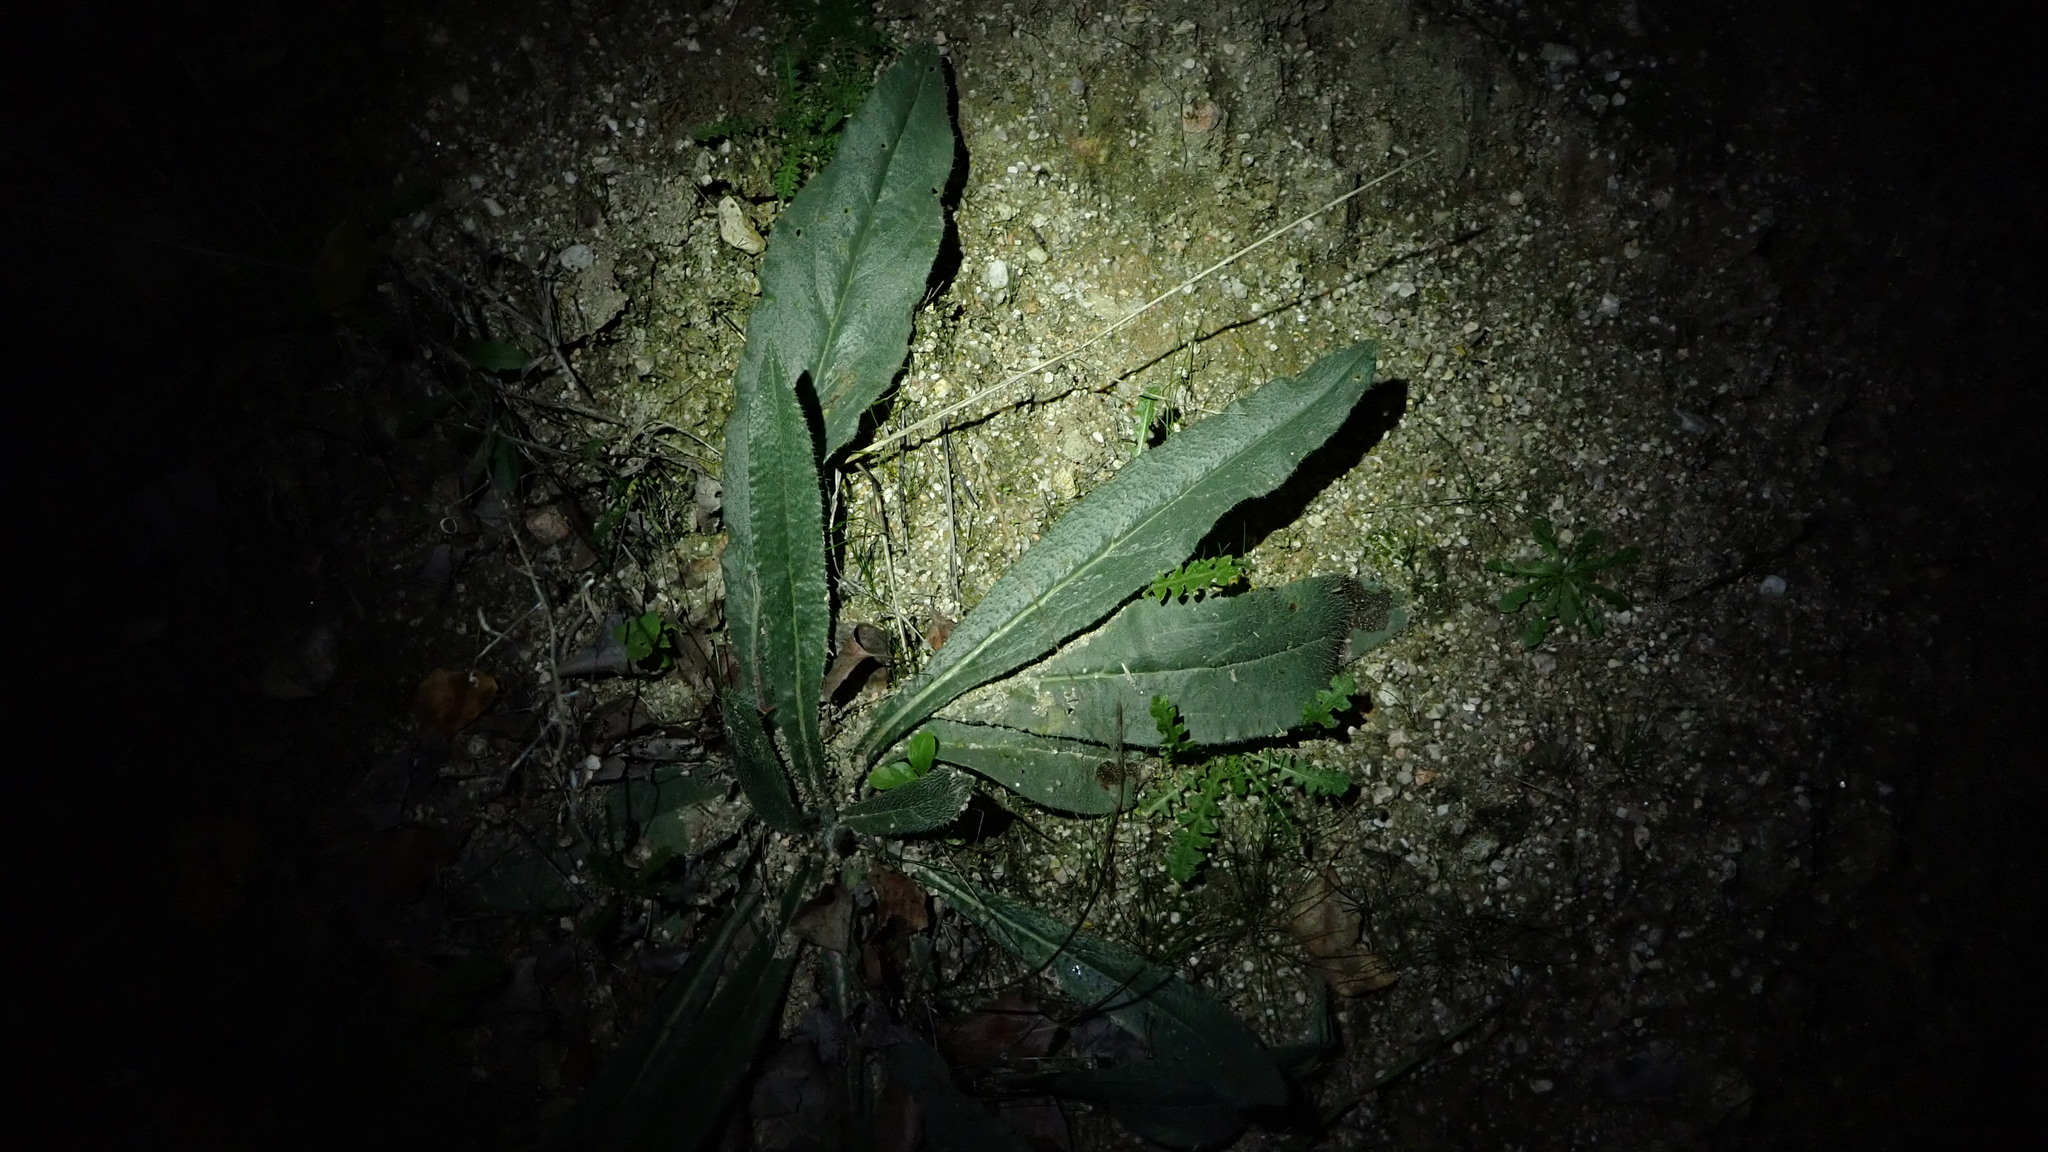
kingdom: Plantae
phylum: Tracheophyta
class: Magnoliopsida
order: Boraginales
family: Boraginaceae
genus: Anchusa
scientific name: Anchusa azurea
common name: Garden anchusa
